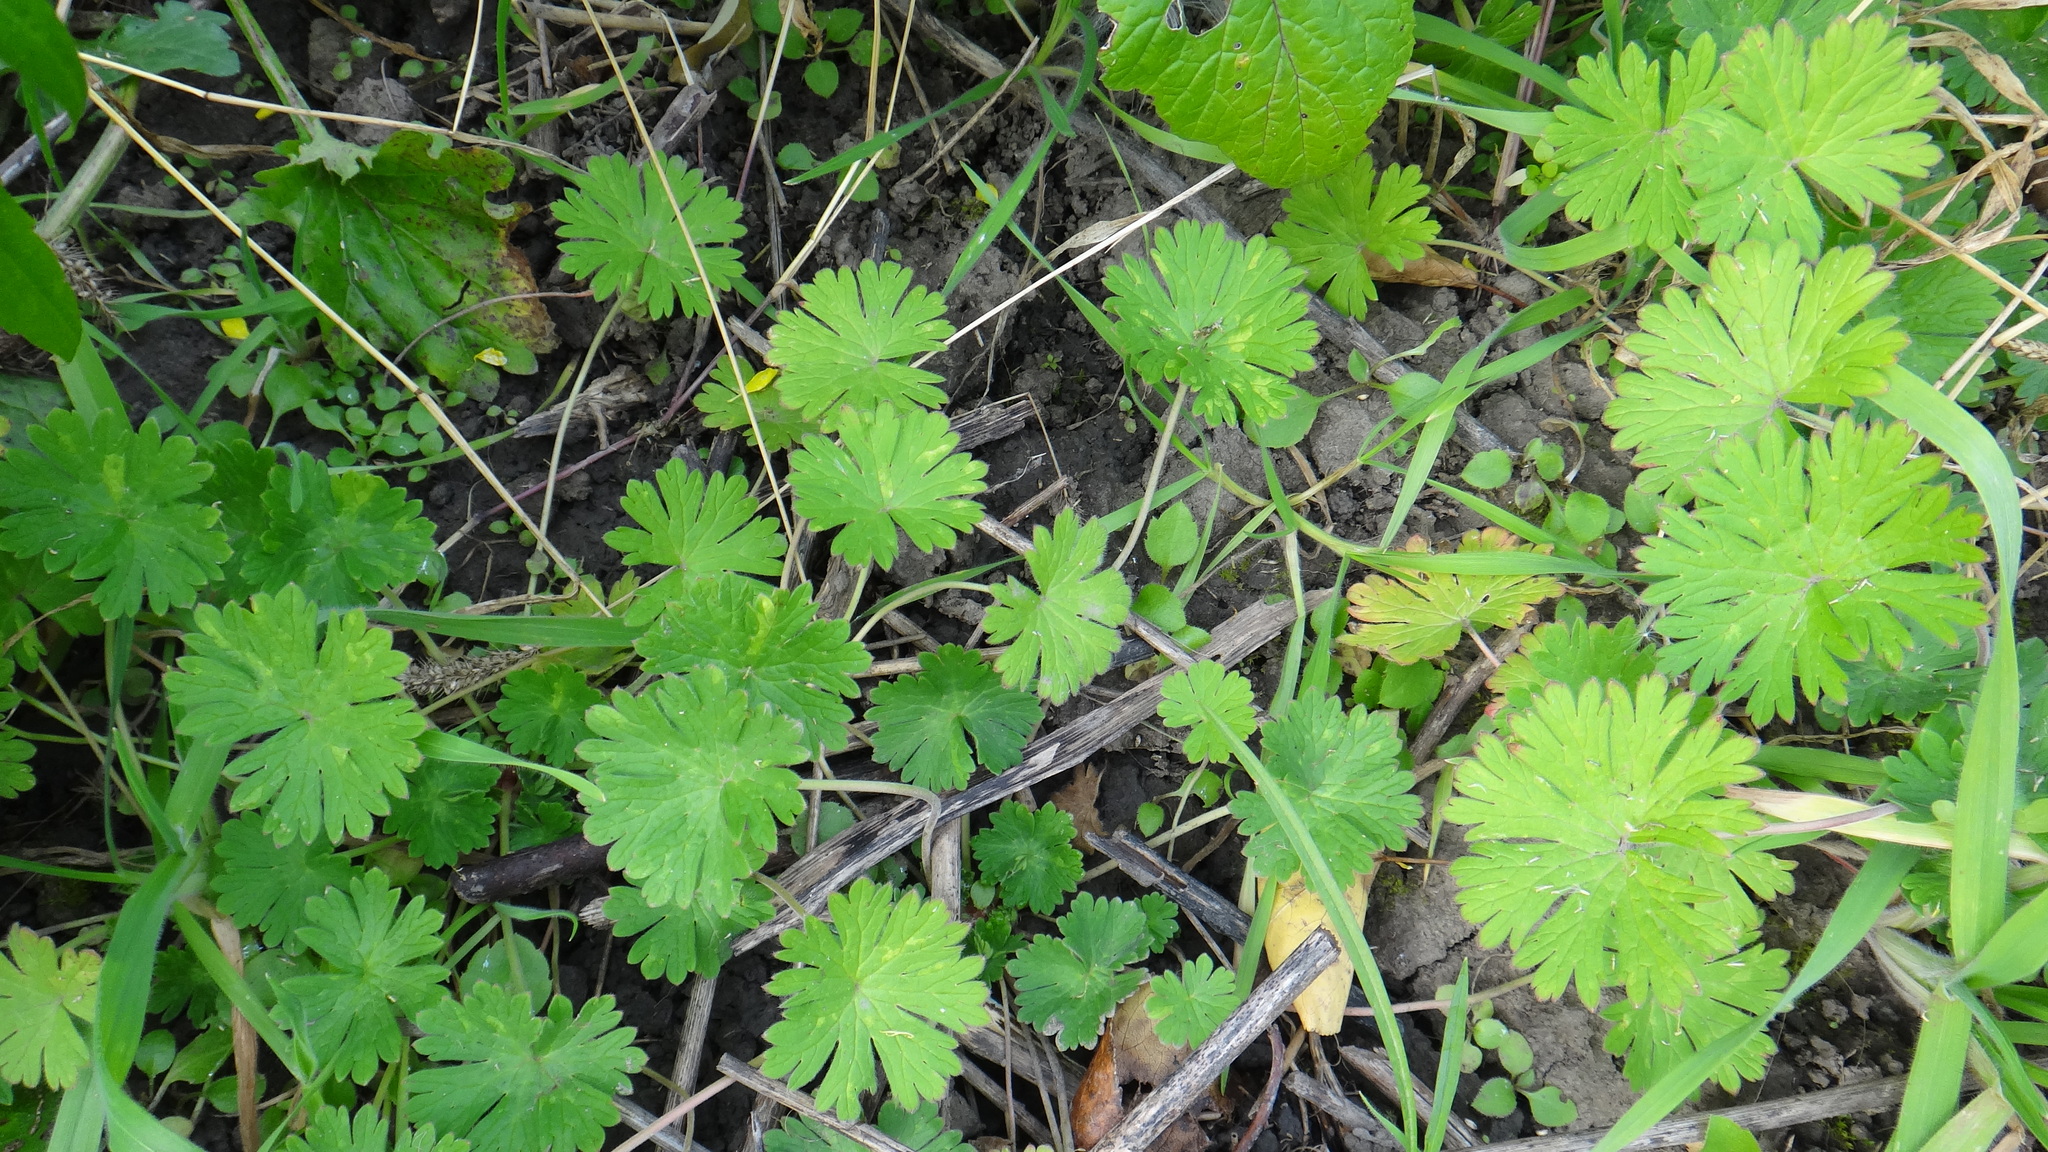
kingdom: Plantae
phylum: Tracheophyta
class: Magnoliopsida
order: Geraniales
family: Geraniaceae
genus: Geranium
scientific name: Geranium pusillum
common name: Small geranium
